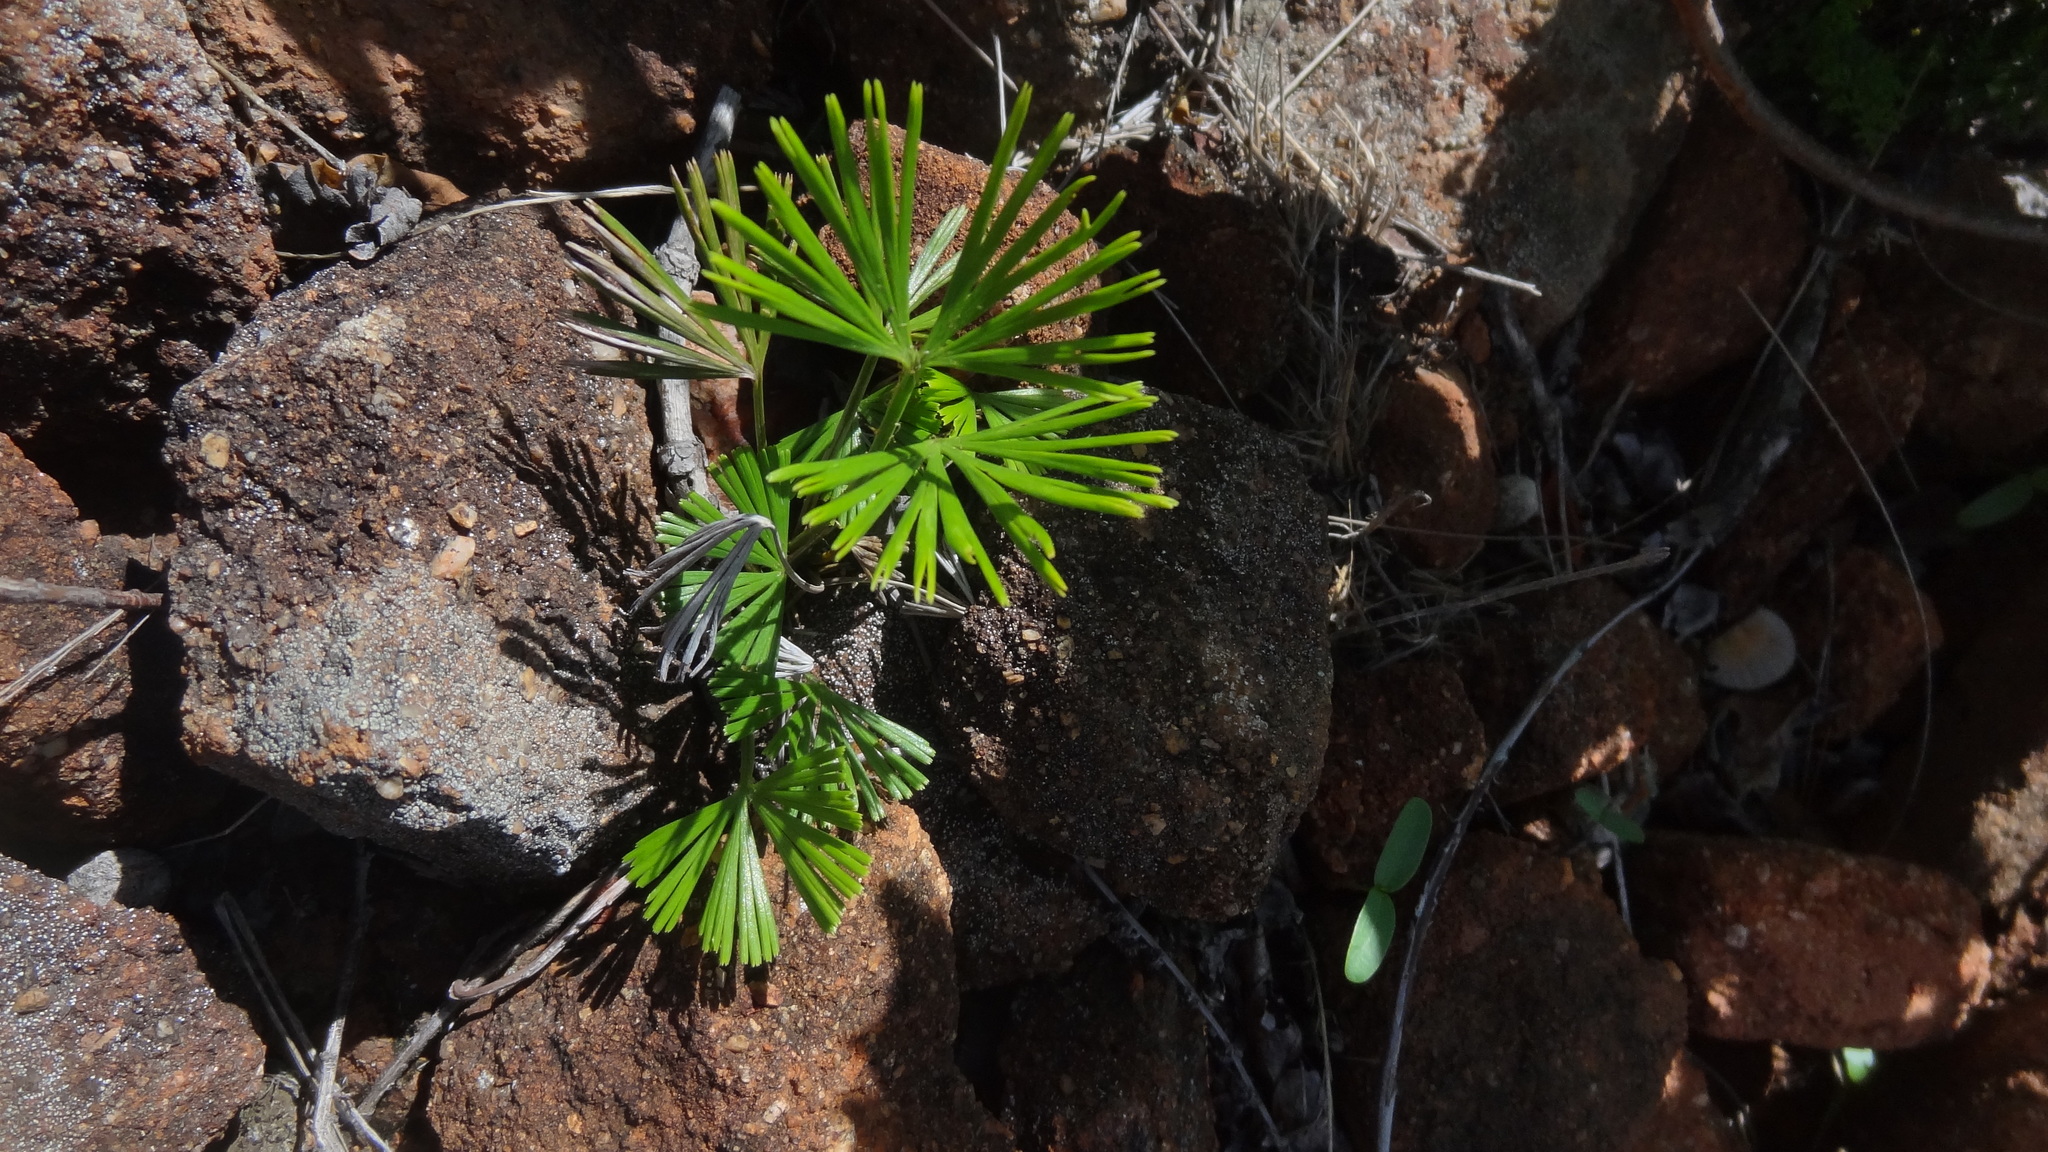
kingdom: Plantae
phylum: Tracheophyta
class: Polypodiopsida
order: Polypodiales
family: Pteridaceae
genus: Actiniopteris
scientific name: Actiniopteris radiata
